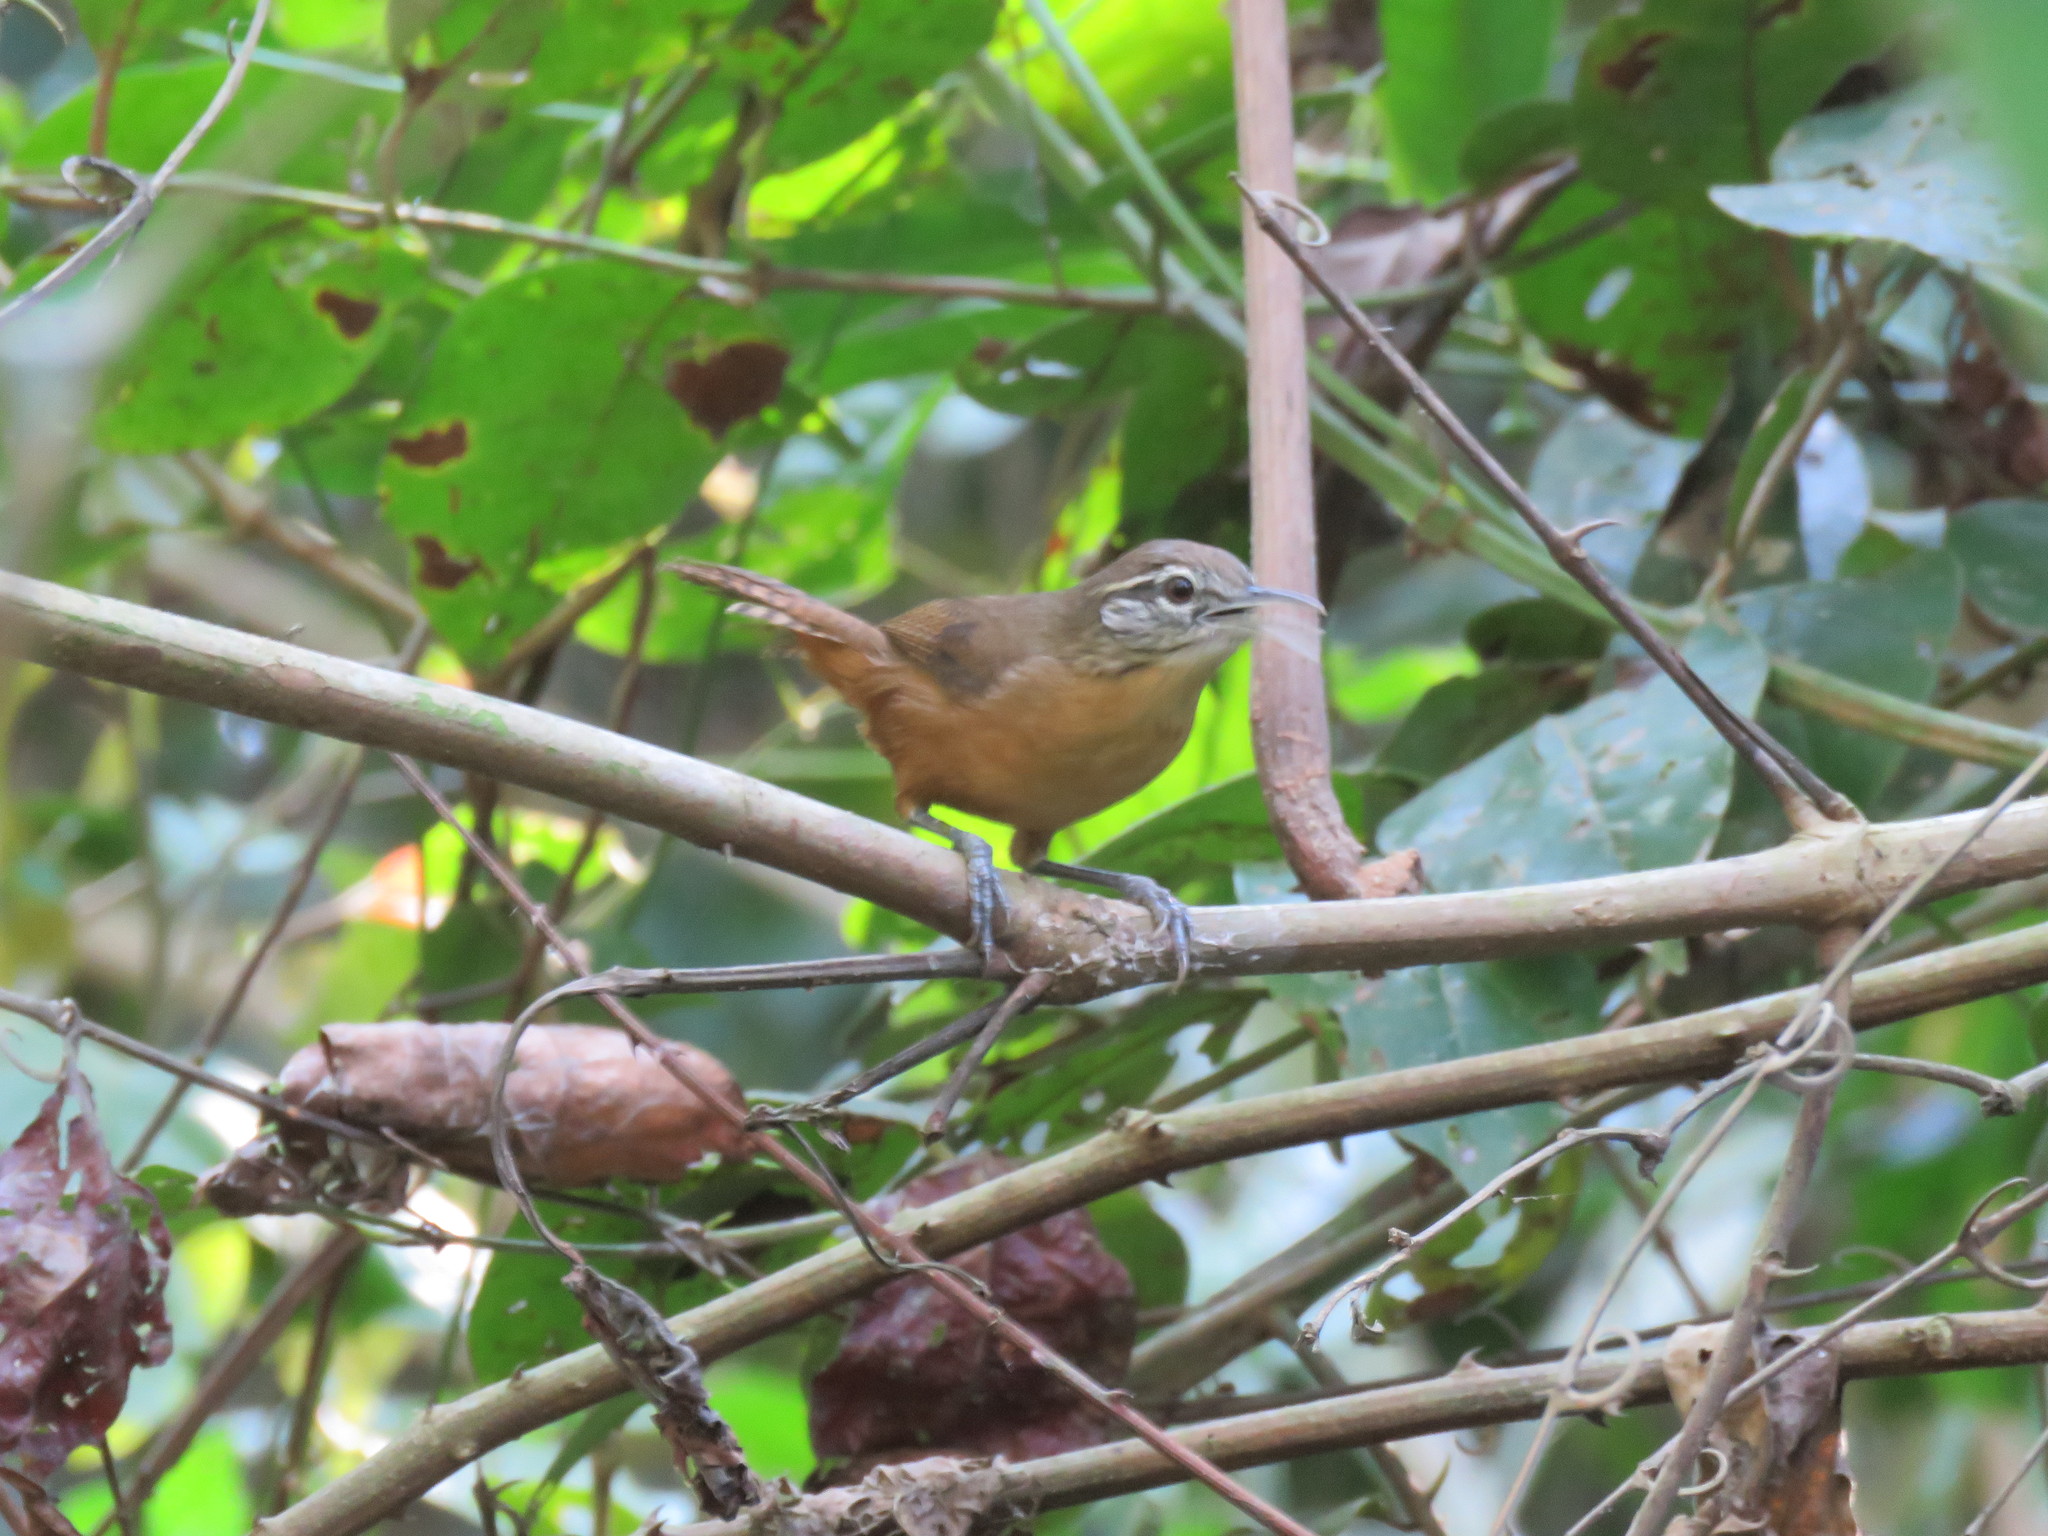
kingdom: Animalia
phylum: Chordata
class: Aves
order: Passeriformes
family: Troglodytidae
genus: Cantorchilus
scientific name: Cantorchilus guarayanus
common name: Fawn-breasted wren
